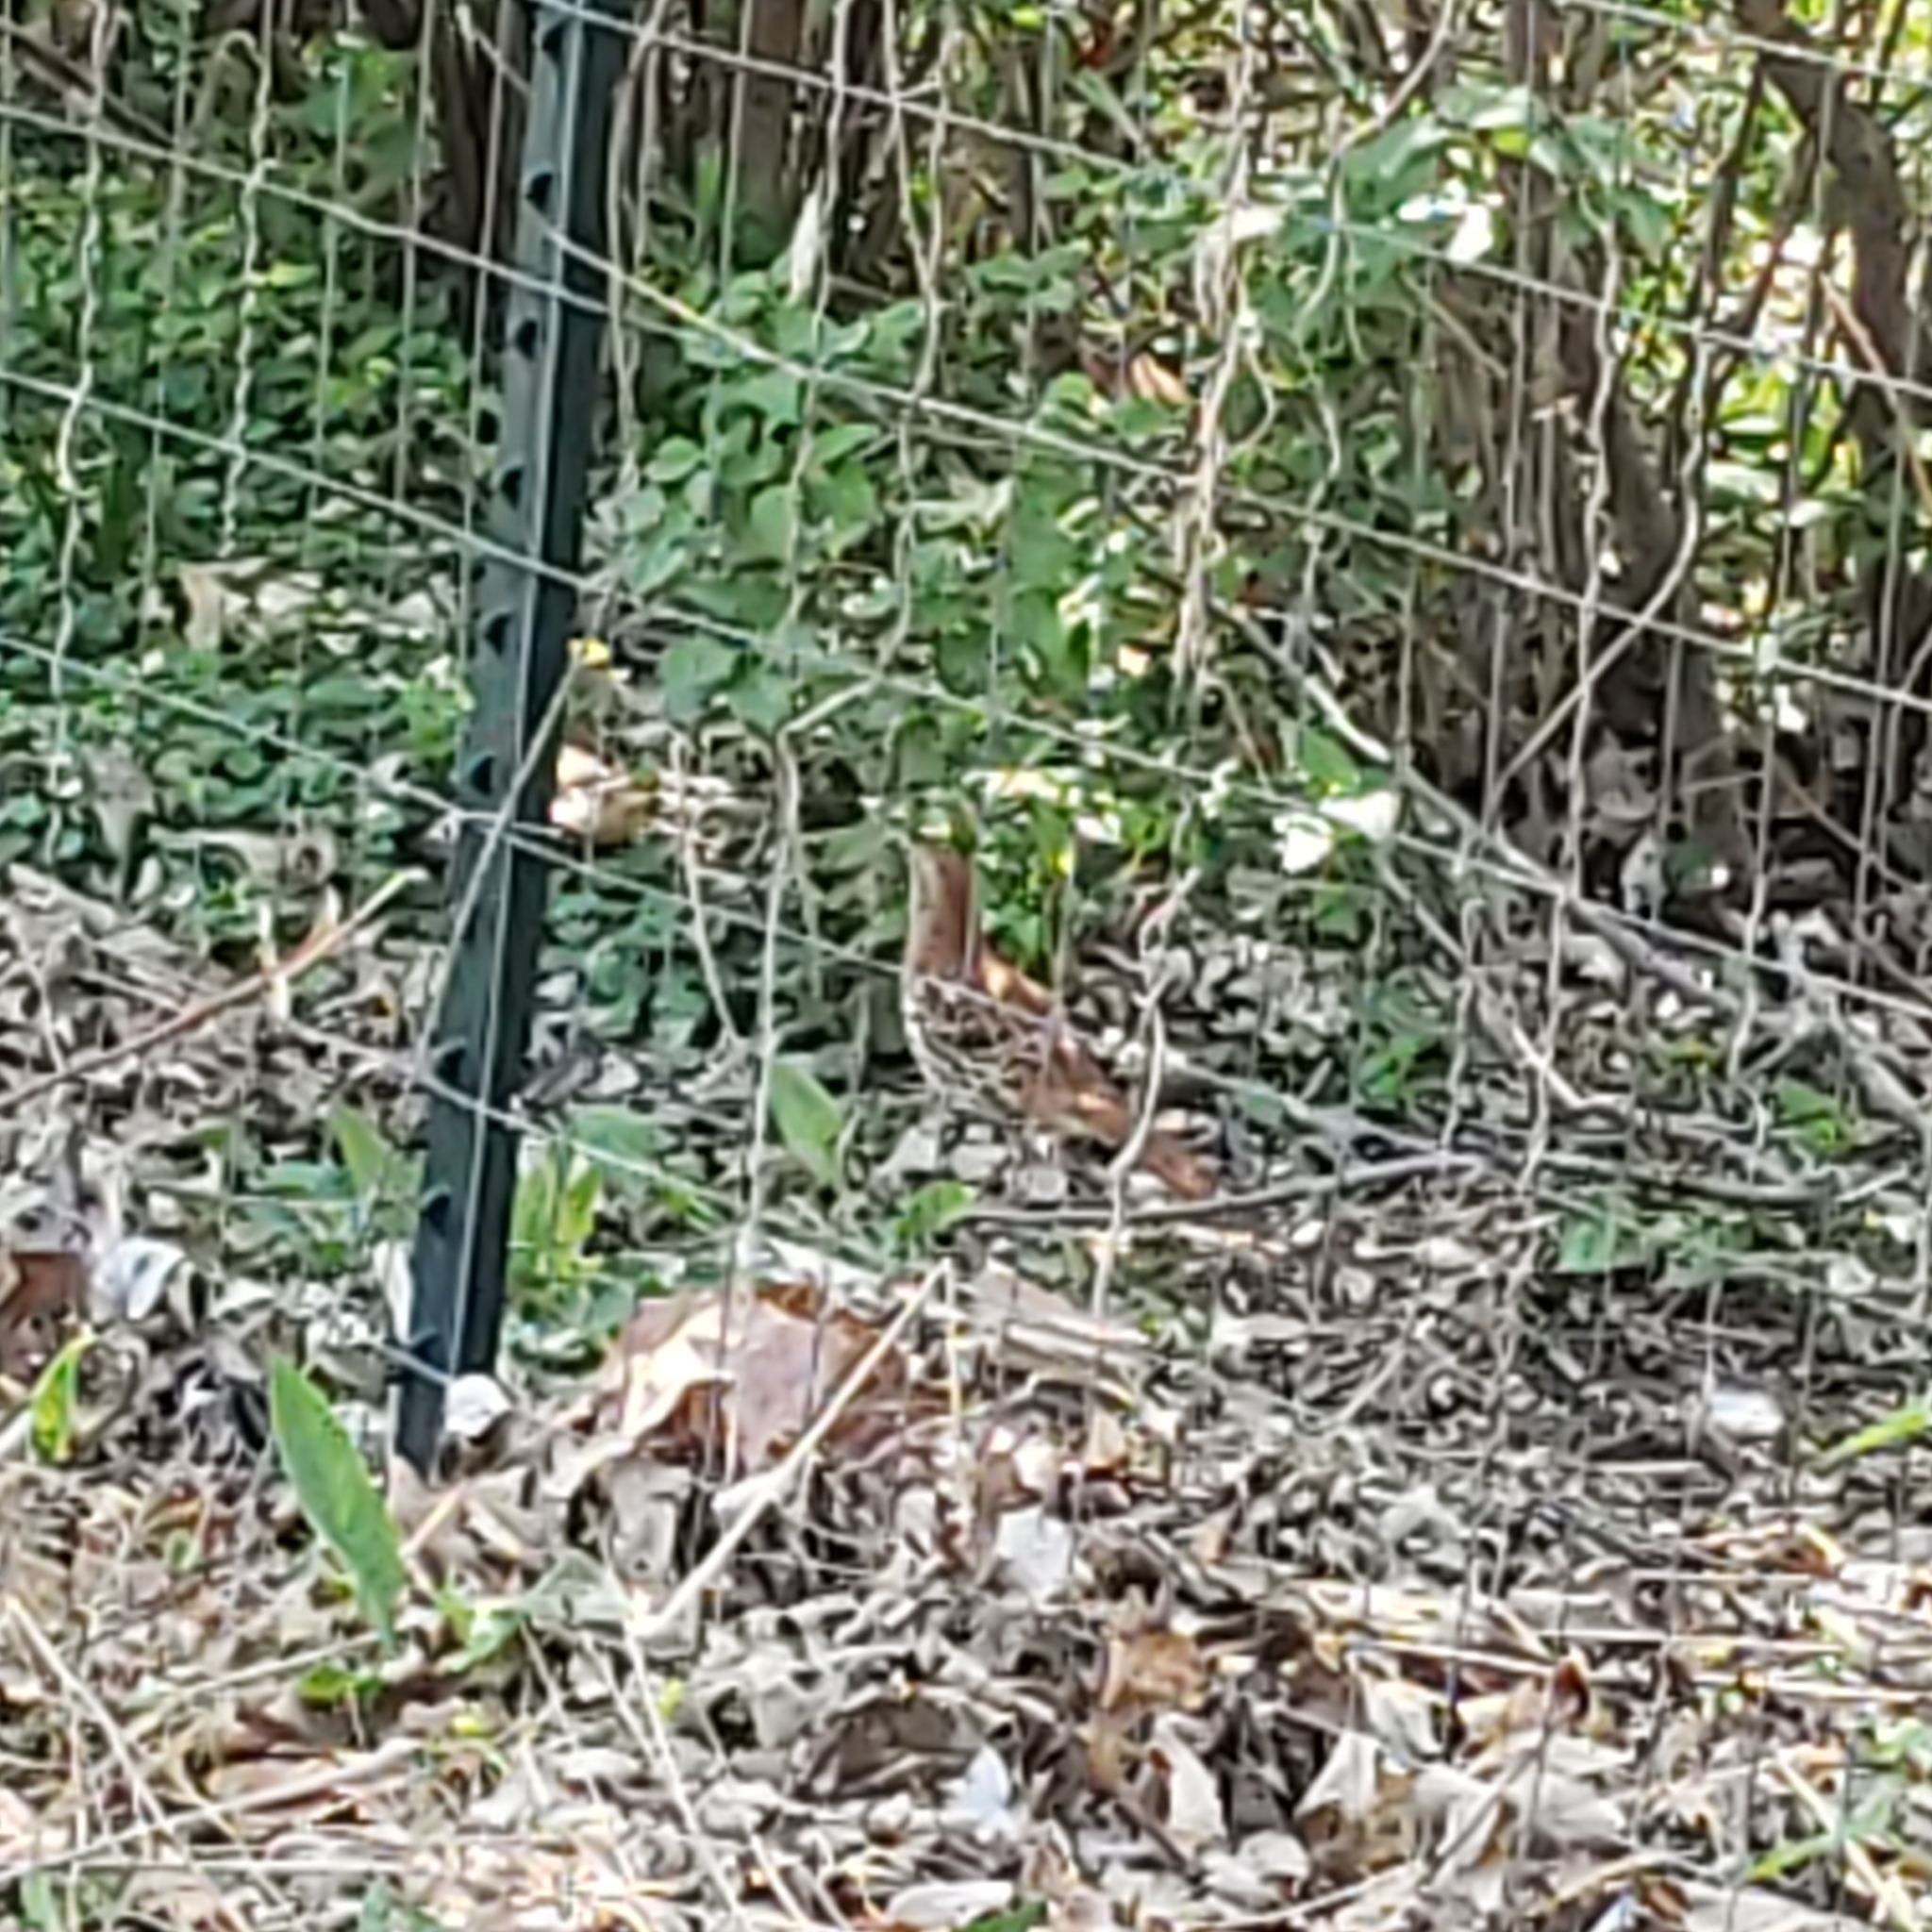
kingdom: Animalia
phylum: Chordata
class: Aves
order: Passeriformes
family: Mimidae
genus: Toxostoma
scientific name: Toxostoma rufum
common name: Brown thrasher
